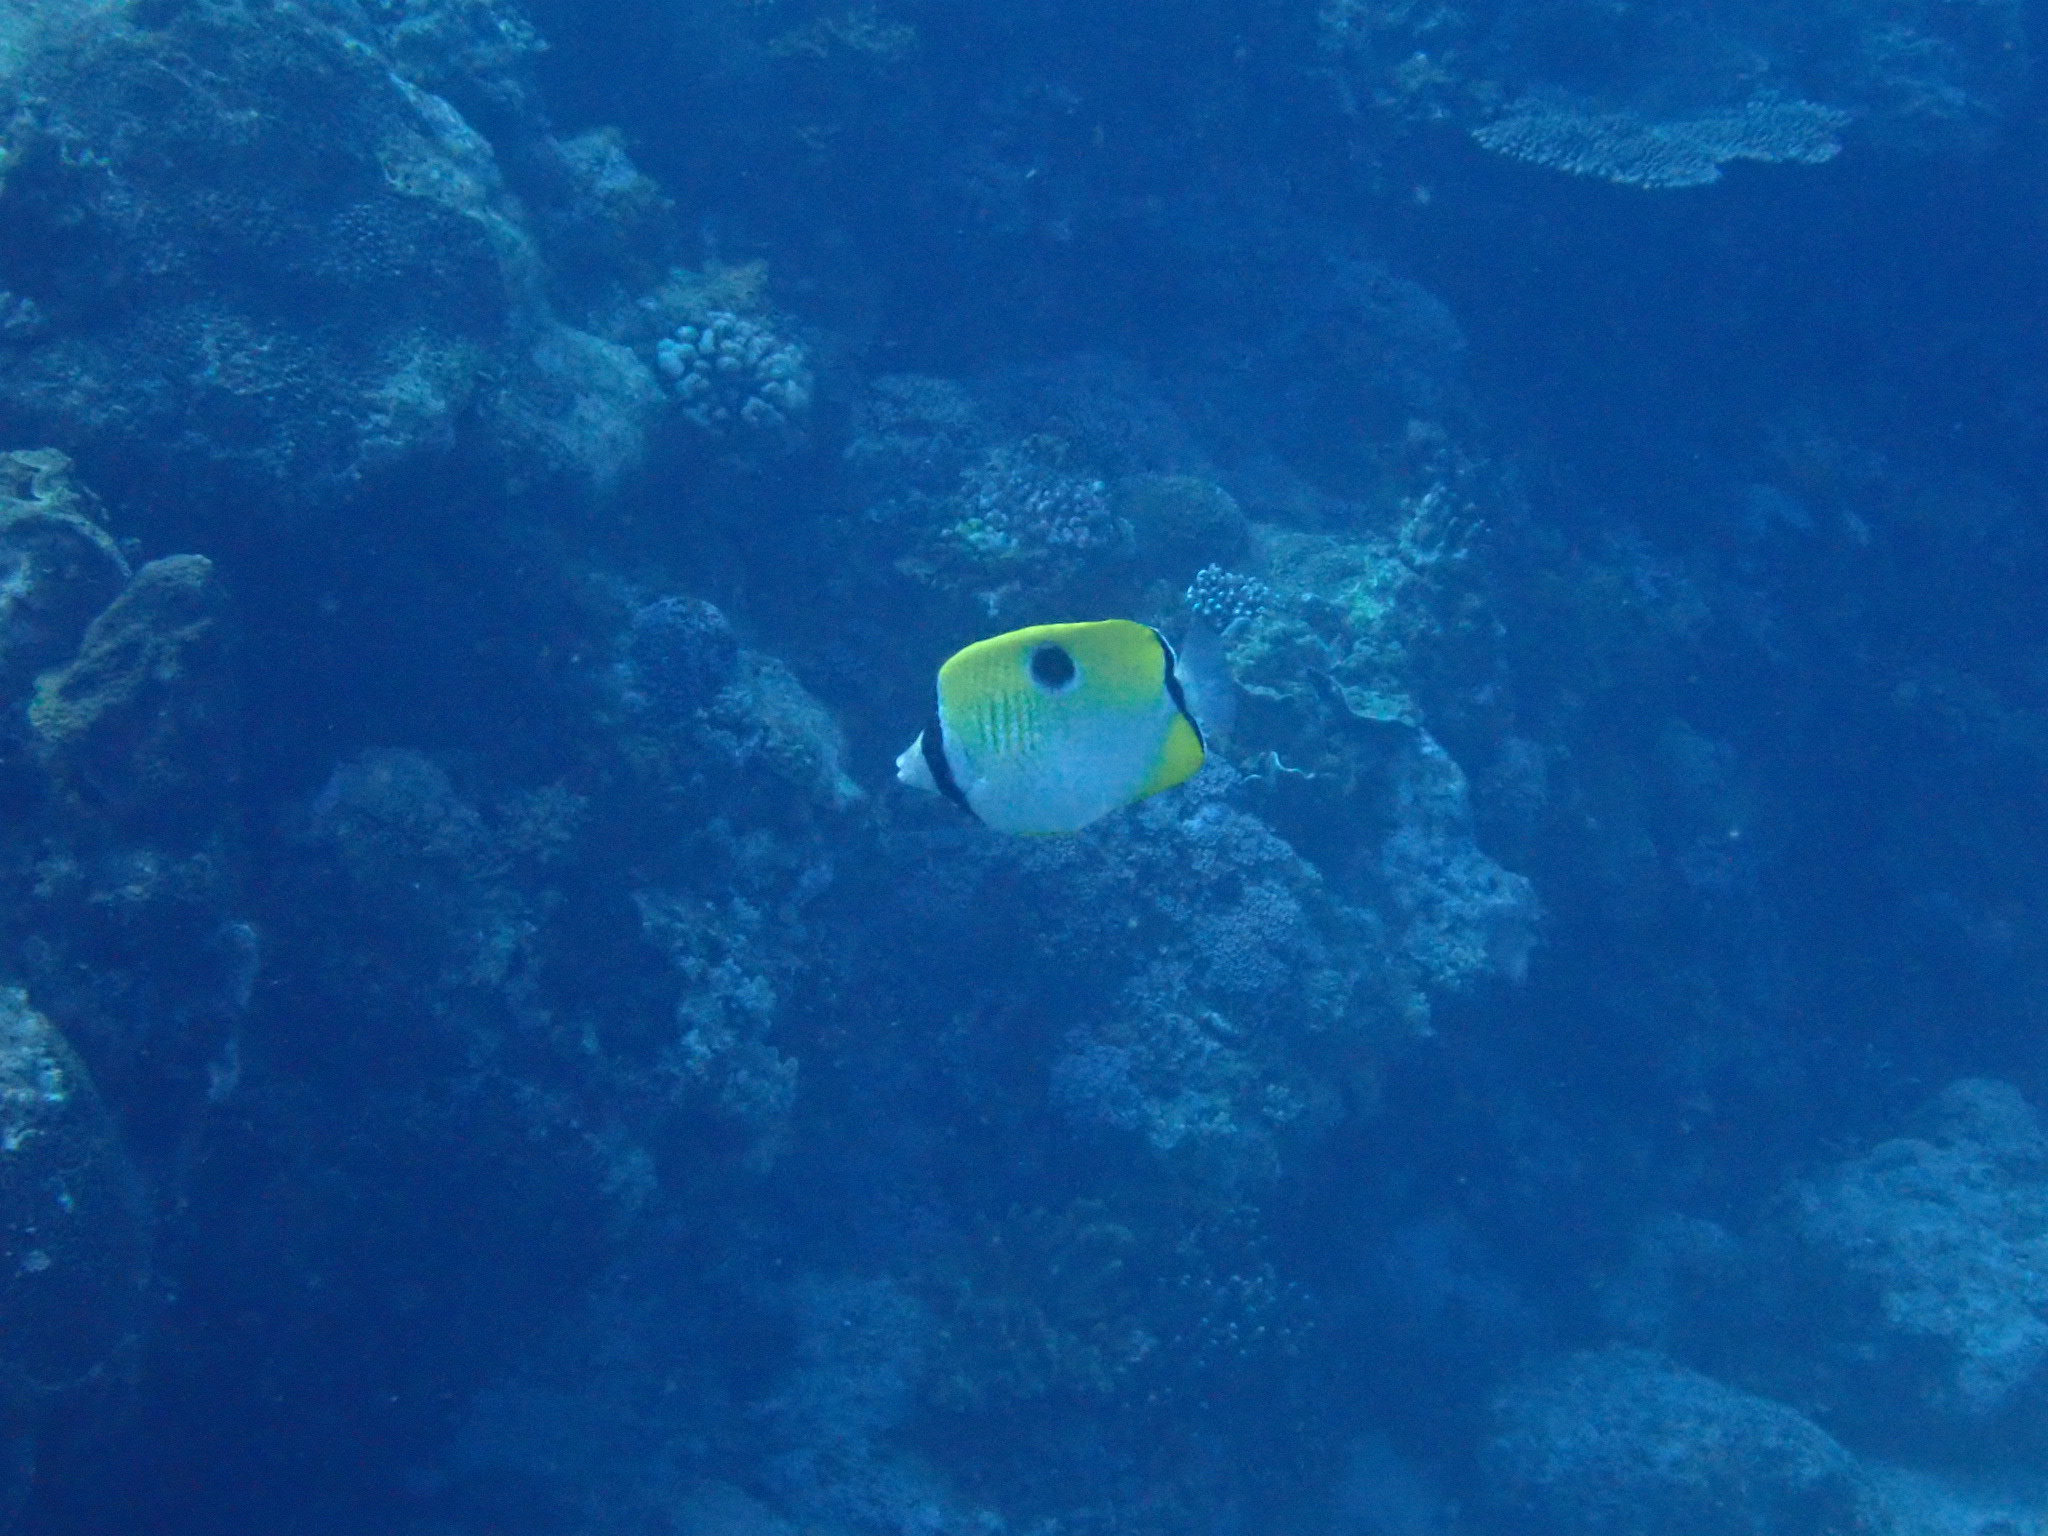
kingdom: Animalia
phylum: Chordata
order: Perciformes
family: Chaetodontidae
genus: Chaetodon
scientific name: Chaetodon unimaculatus
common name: Teardrop butterflyfish
